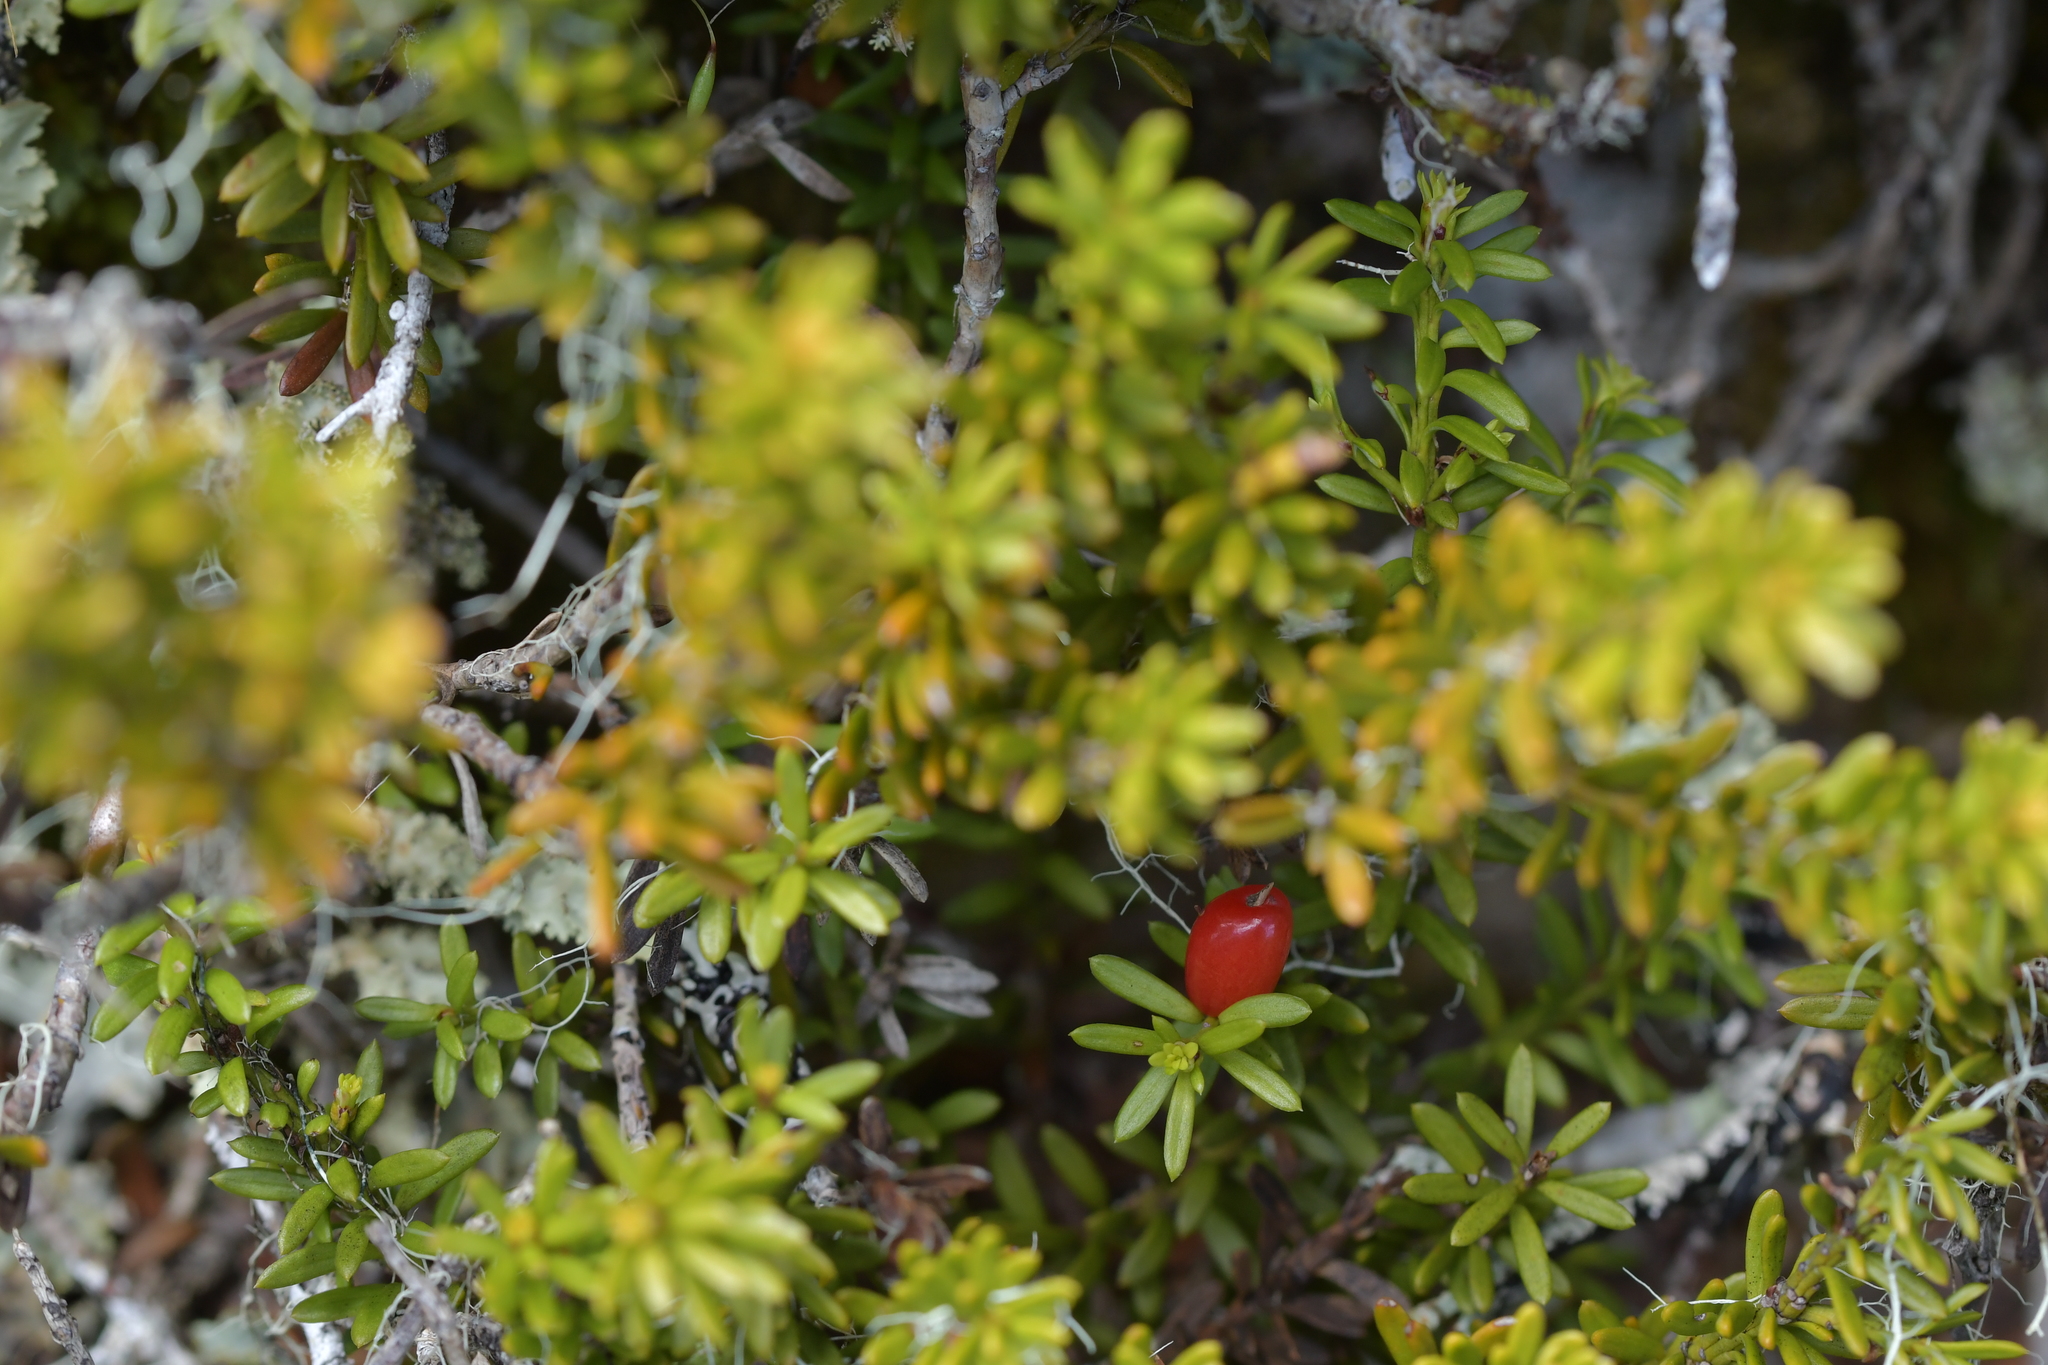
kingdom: Plantae
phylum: Tracheophyta
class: Pinopsida
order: Pinales
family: Podocarpaceae
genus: Podocarpus
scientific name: Podocarpus nivalis
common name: Alpine totara
